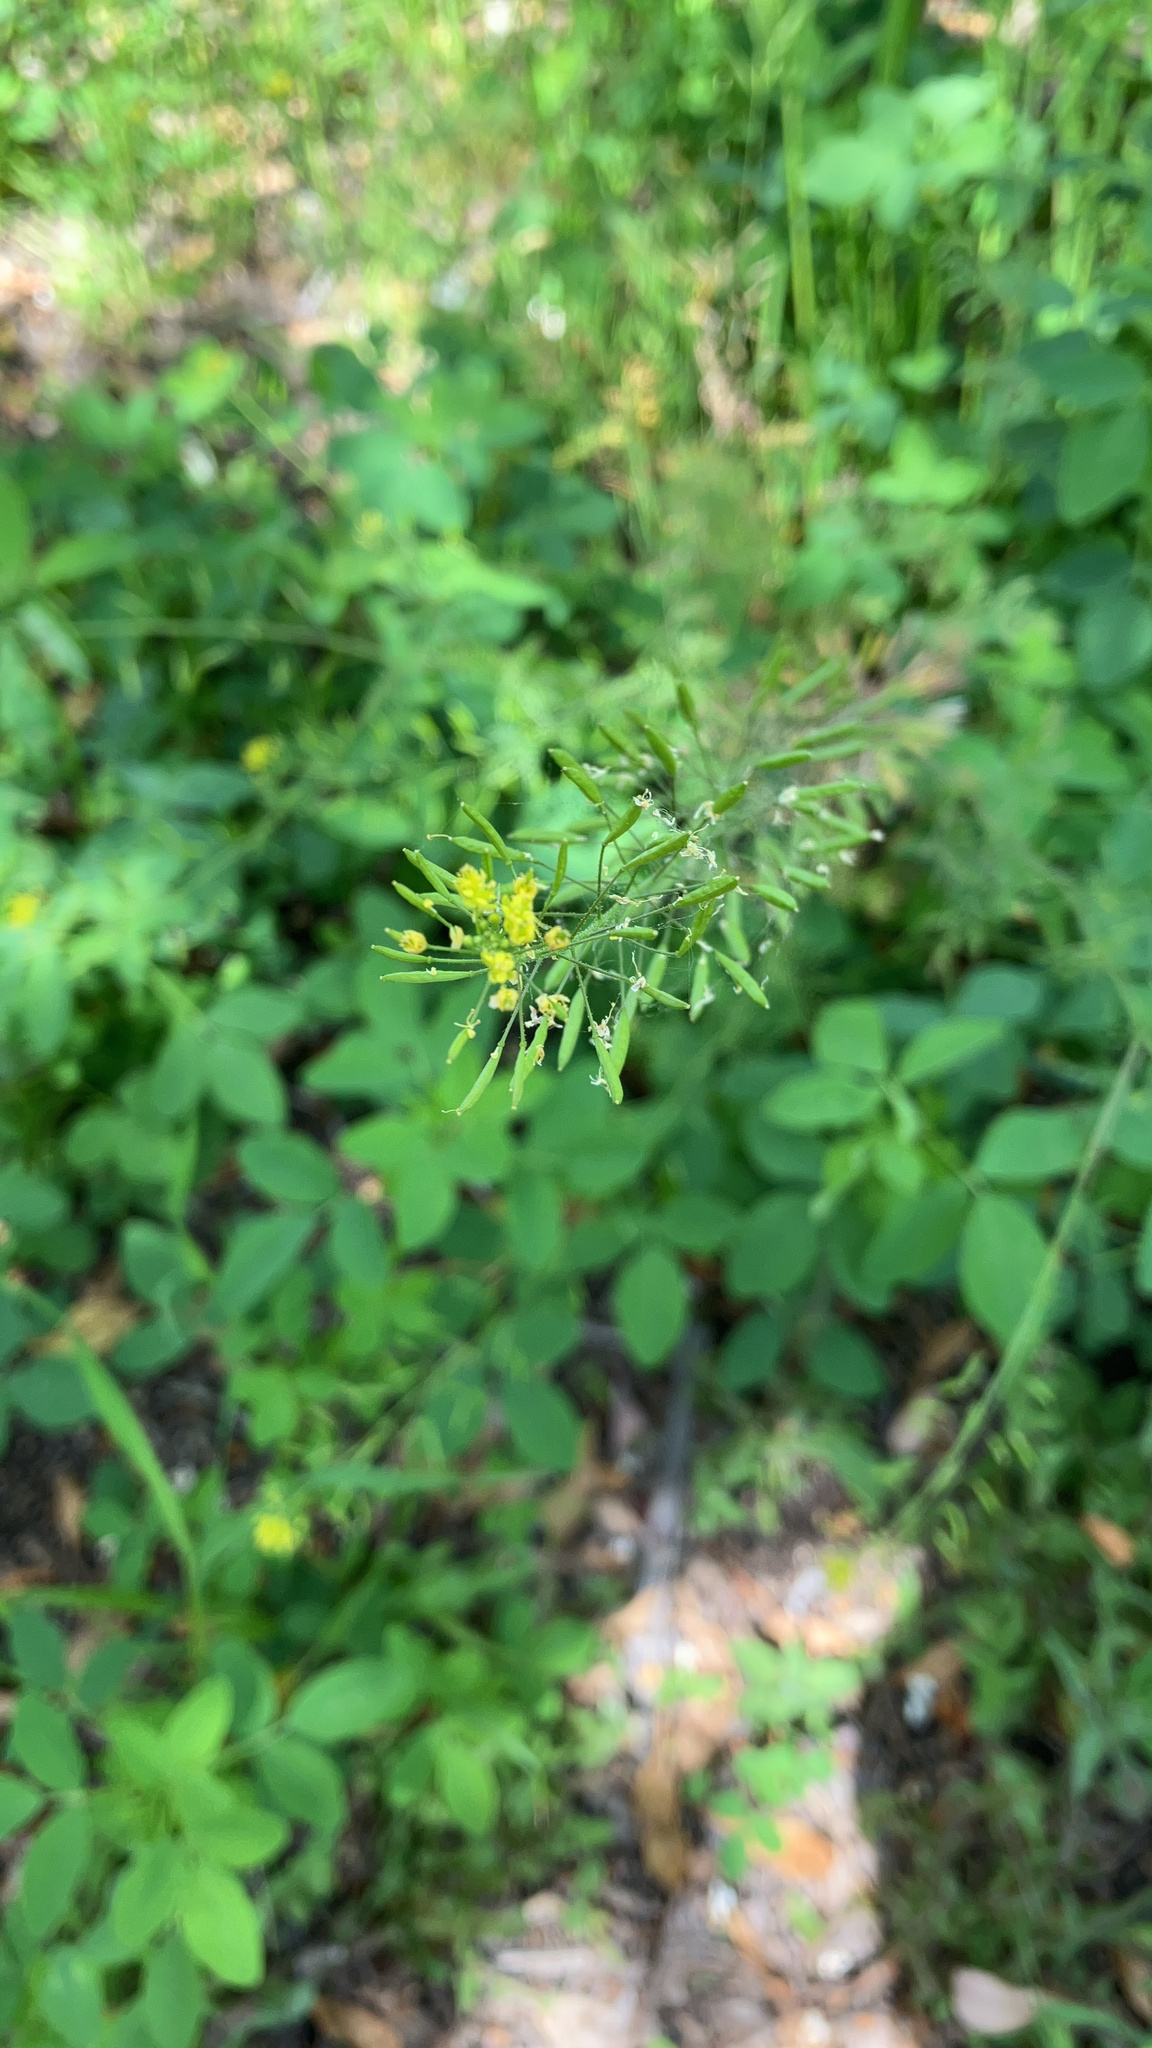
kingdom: Plantae
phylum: Tracheophyta
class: Magnoliopsida
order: Brassicales
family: Brassicaceae
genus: Descurainia
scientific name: Descurainia pinnata
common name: Western tansy mustard
